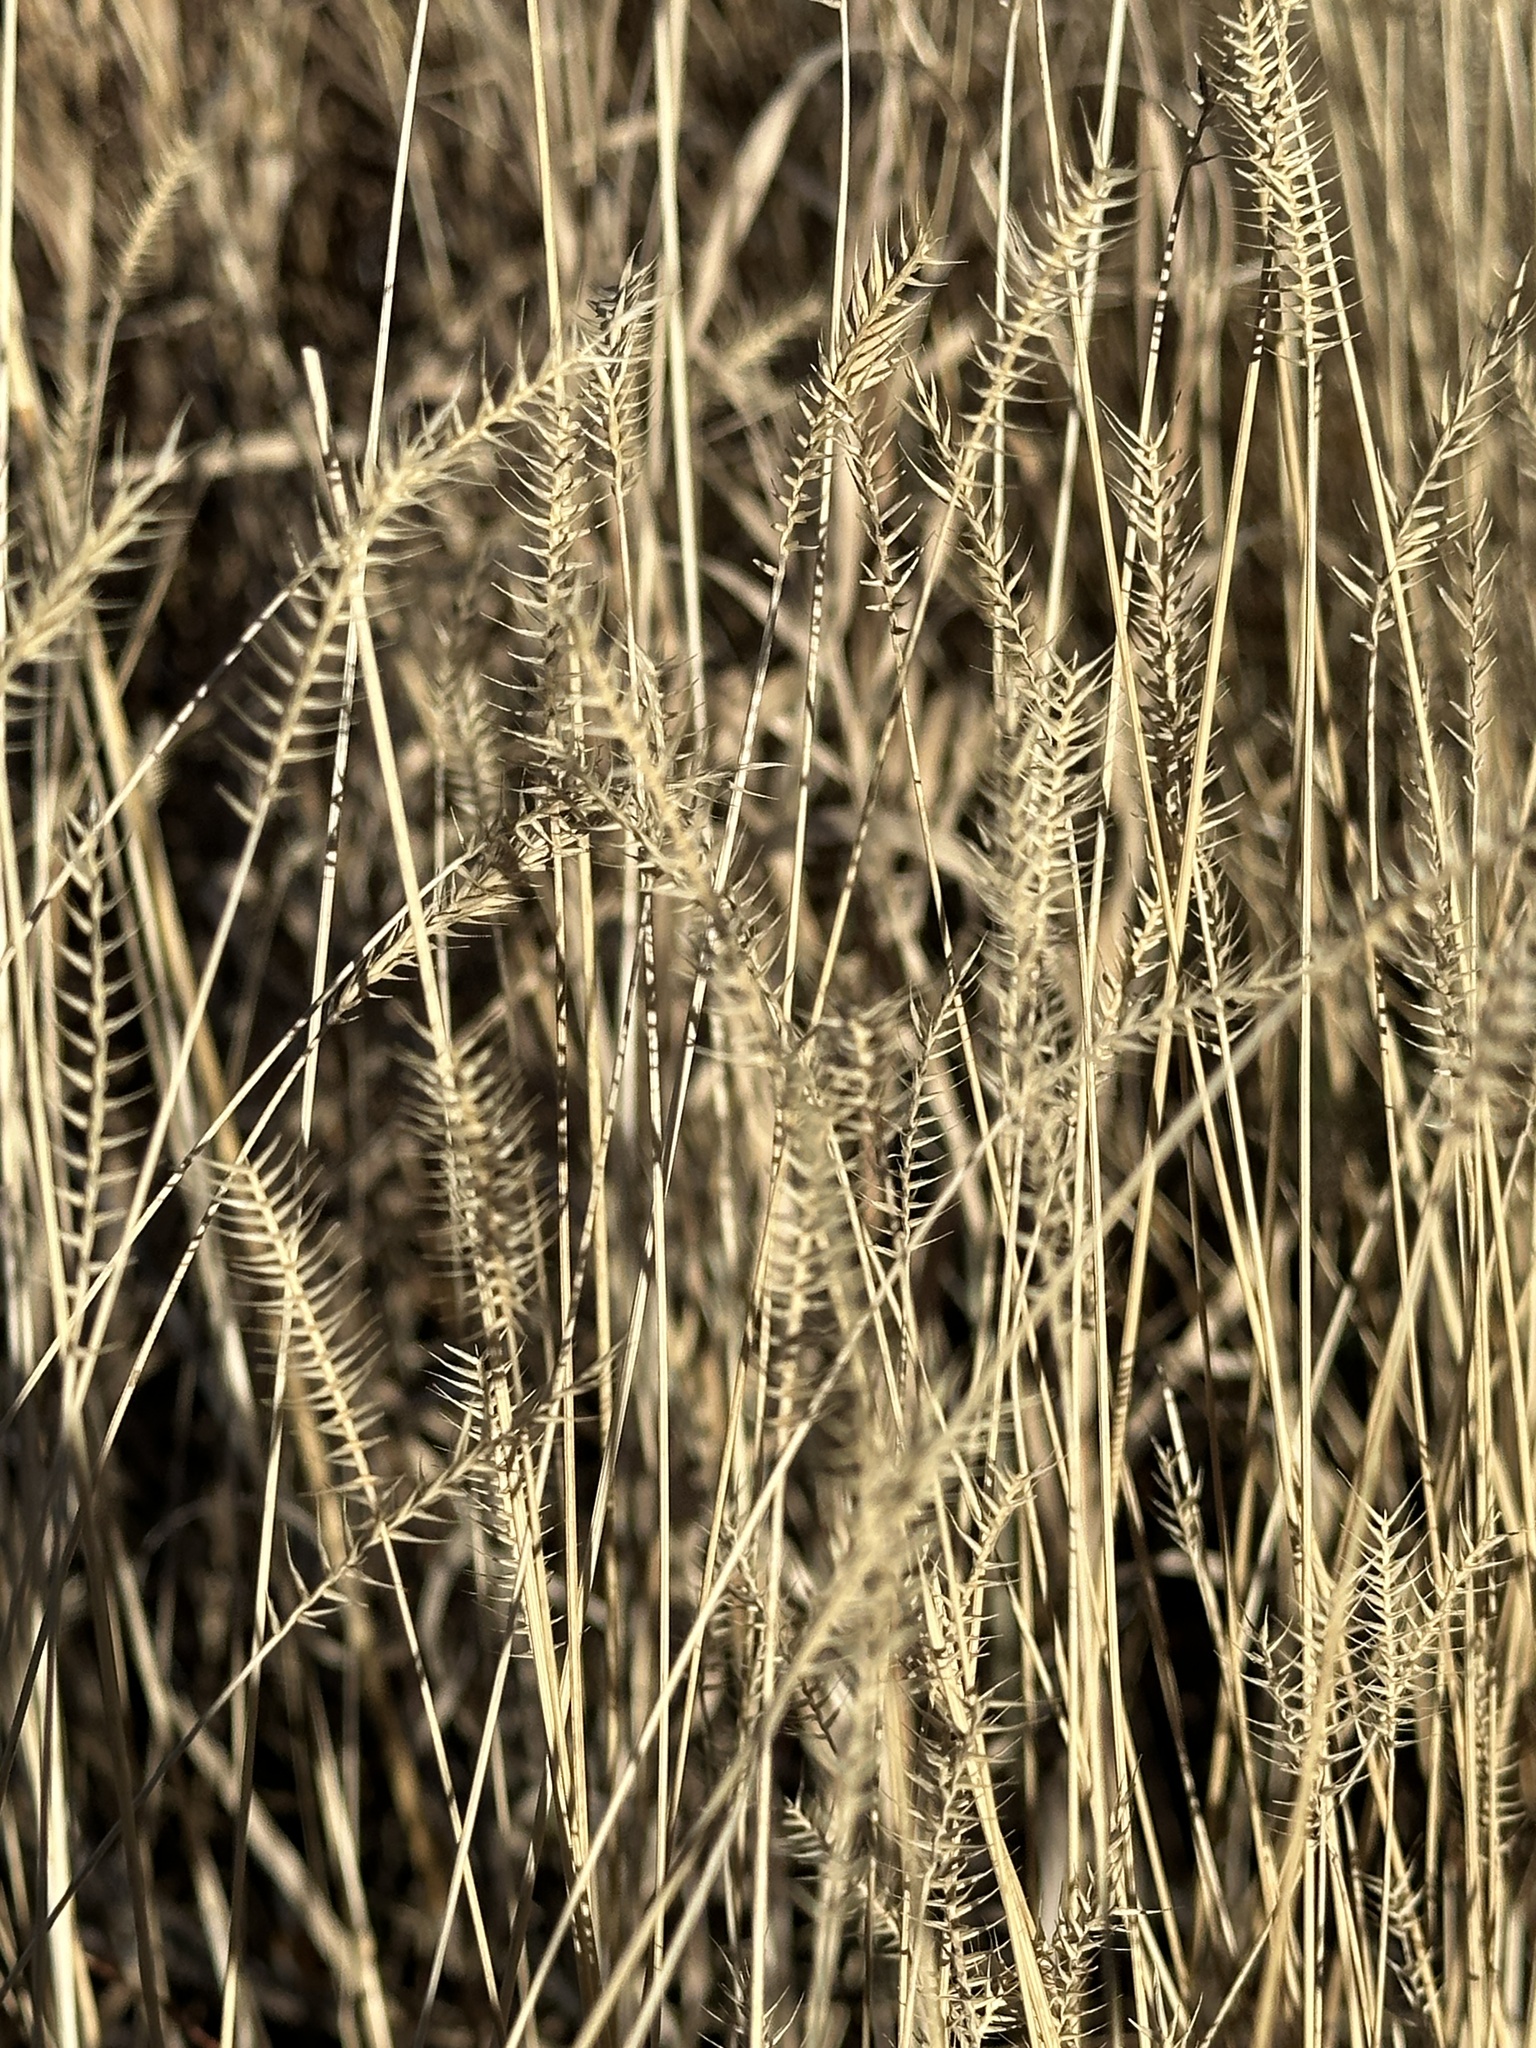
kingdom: Plantae
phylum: Tracheophyta
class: Liliopsida
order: Poales
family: Poaceae
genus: Agropyron
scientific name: Agropyron cristatum
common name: Crested wheatgrass
